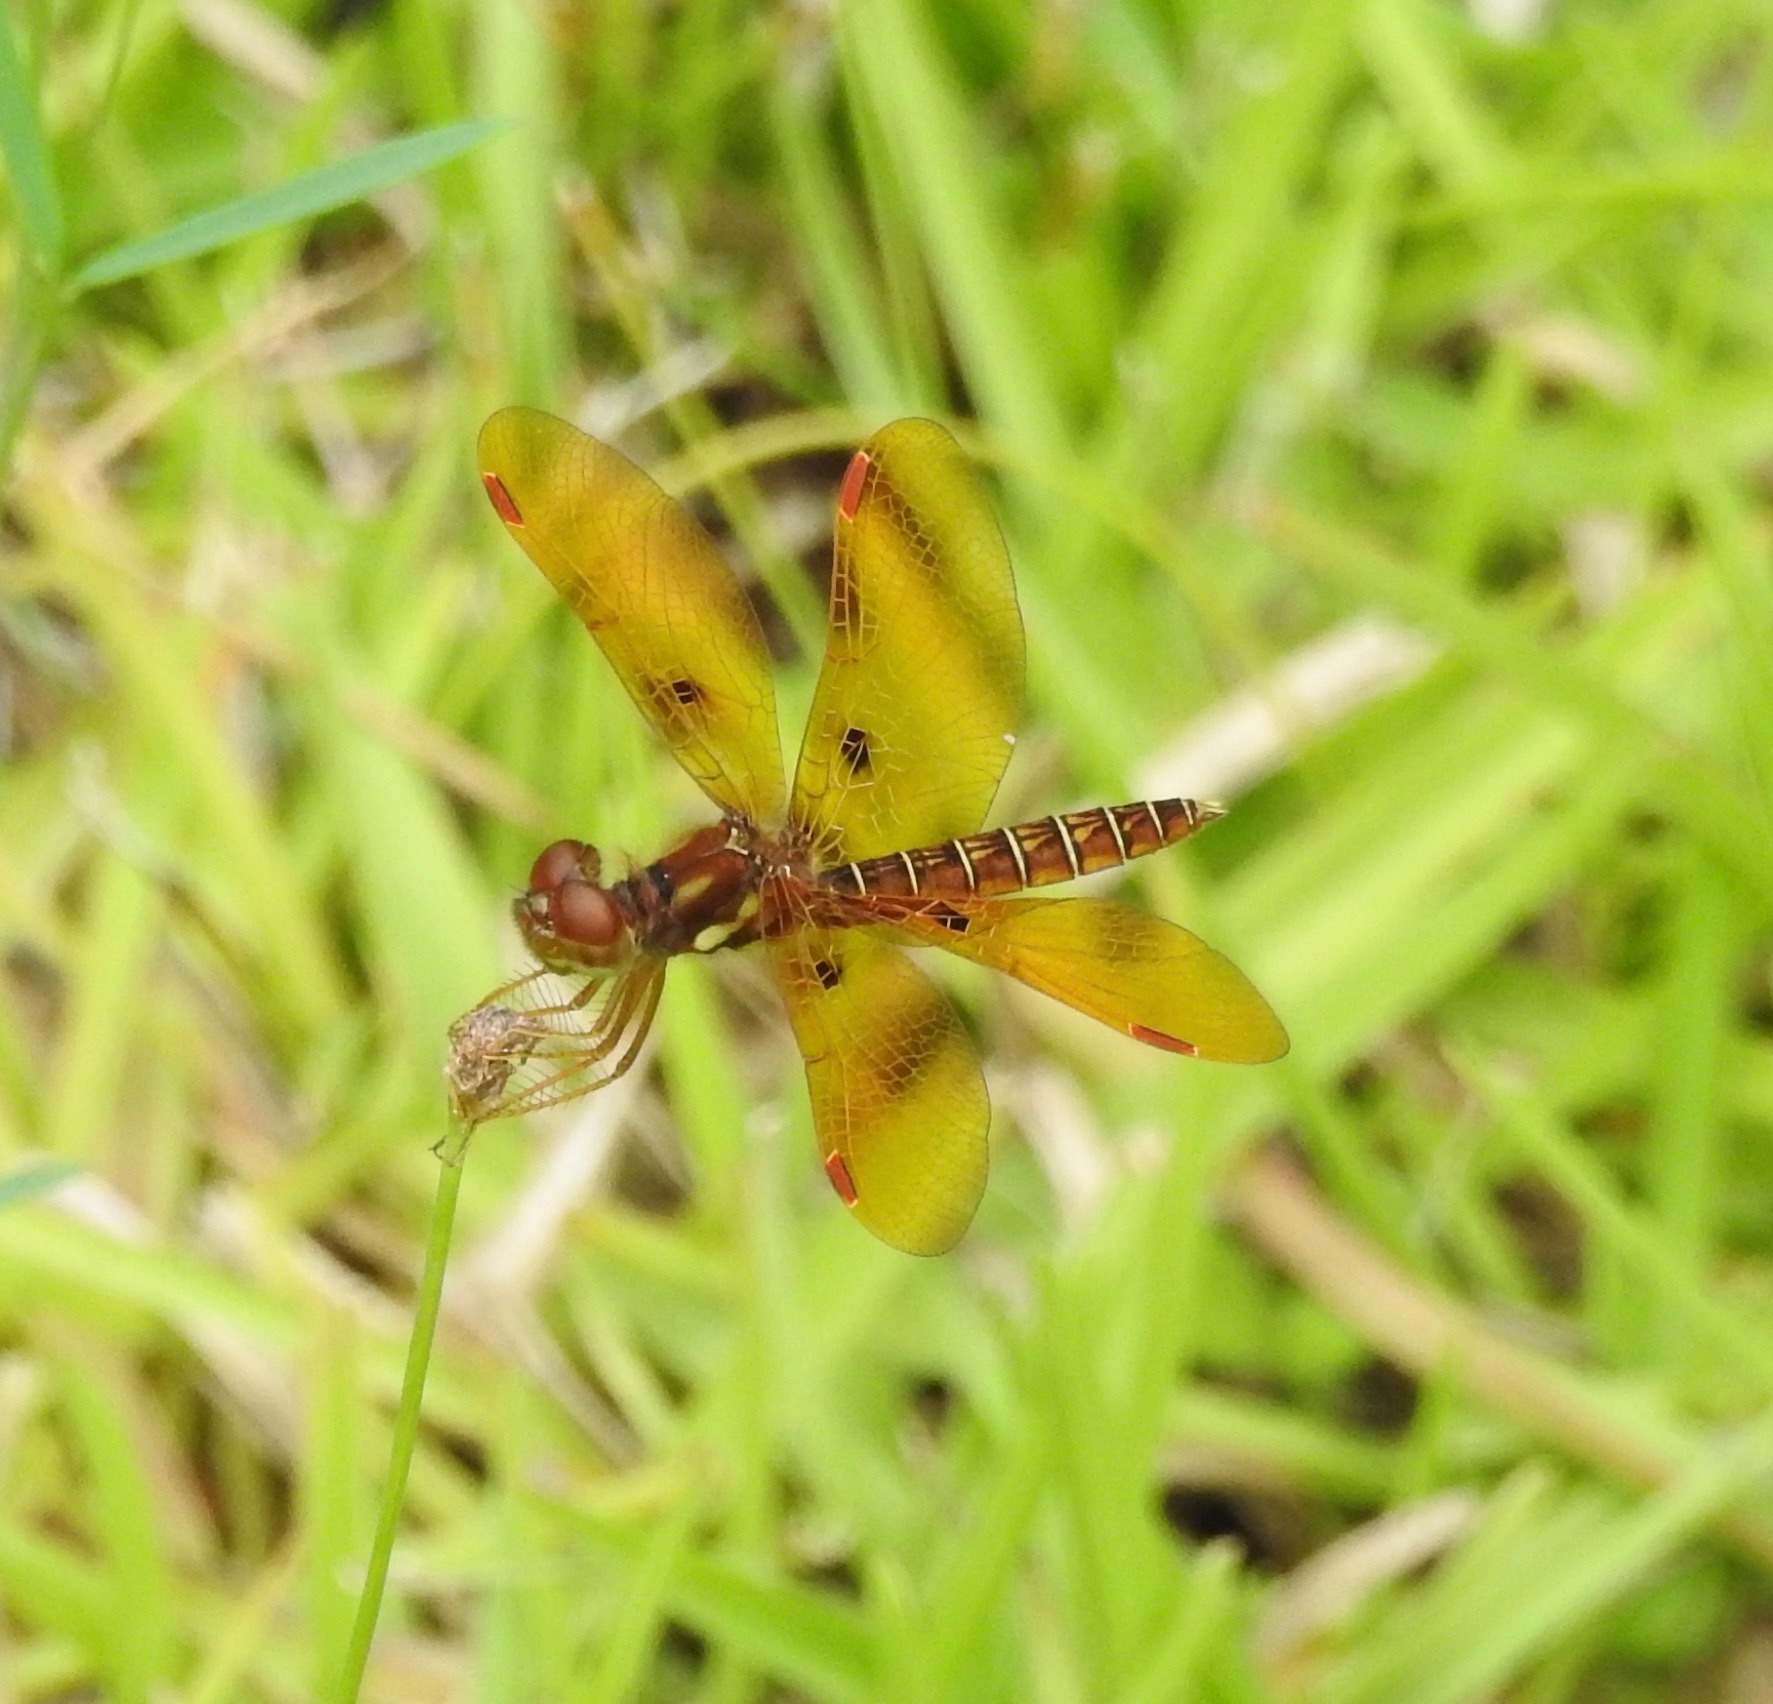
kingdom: Animalia
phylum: Arthropoda
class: Insecta
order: Odonata
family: Libellulidae
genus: Perithemis
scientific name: Perithemis tenera
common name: Eastern amberwing
